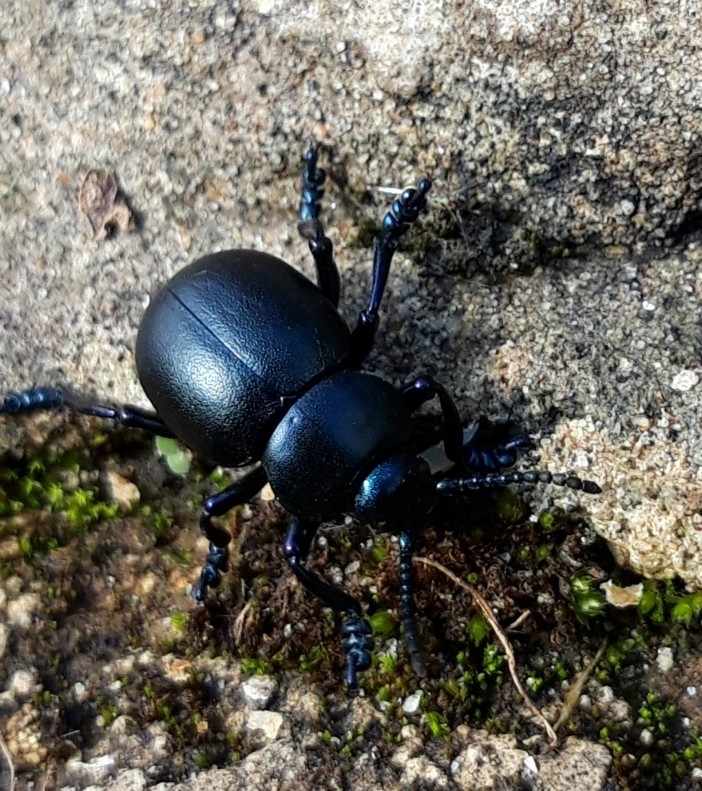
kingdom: Animalia
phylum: Arthropoda
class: Insecta
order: Coleoptera
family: Chrysomelidae
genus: Timarcha
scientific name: Timarcha tenebricosa
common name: Bloody-nosed beetle
